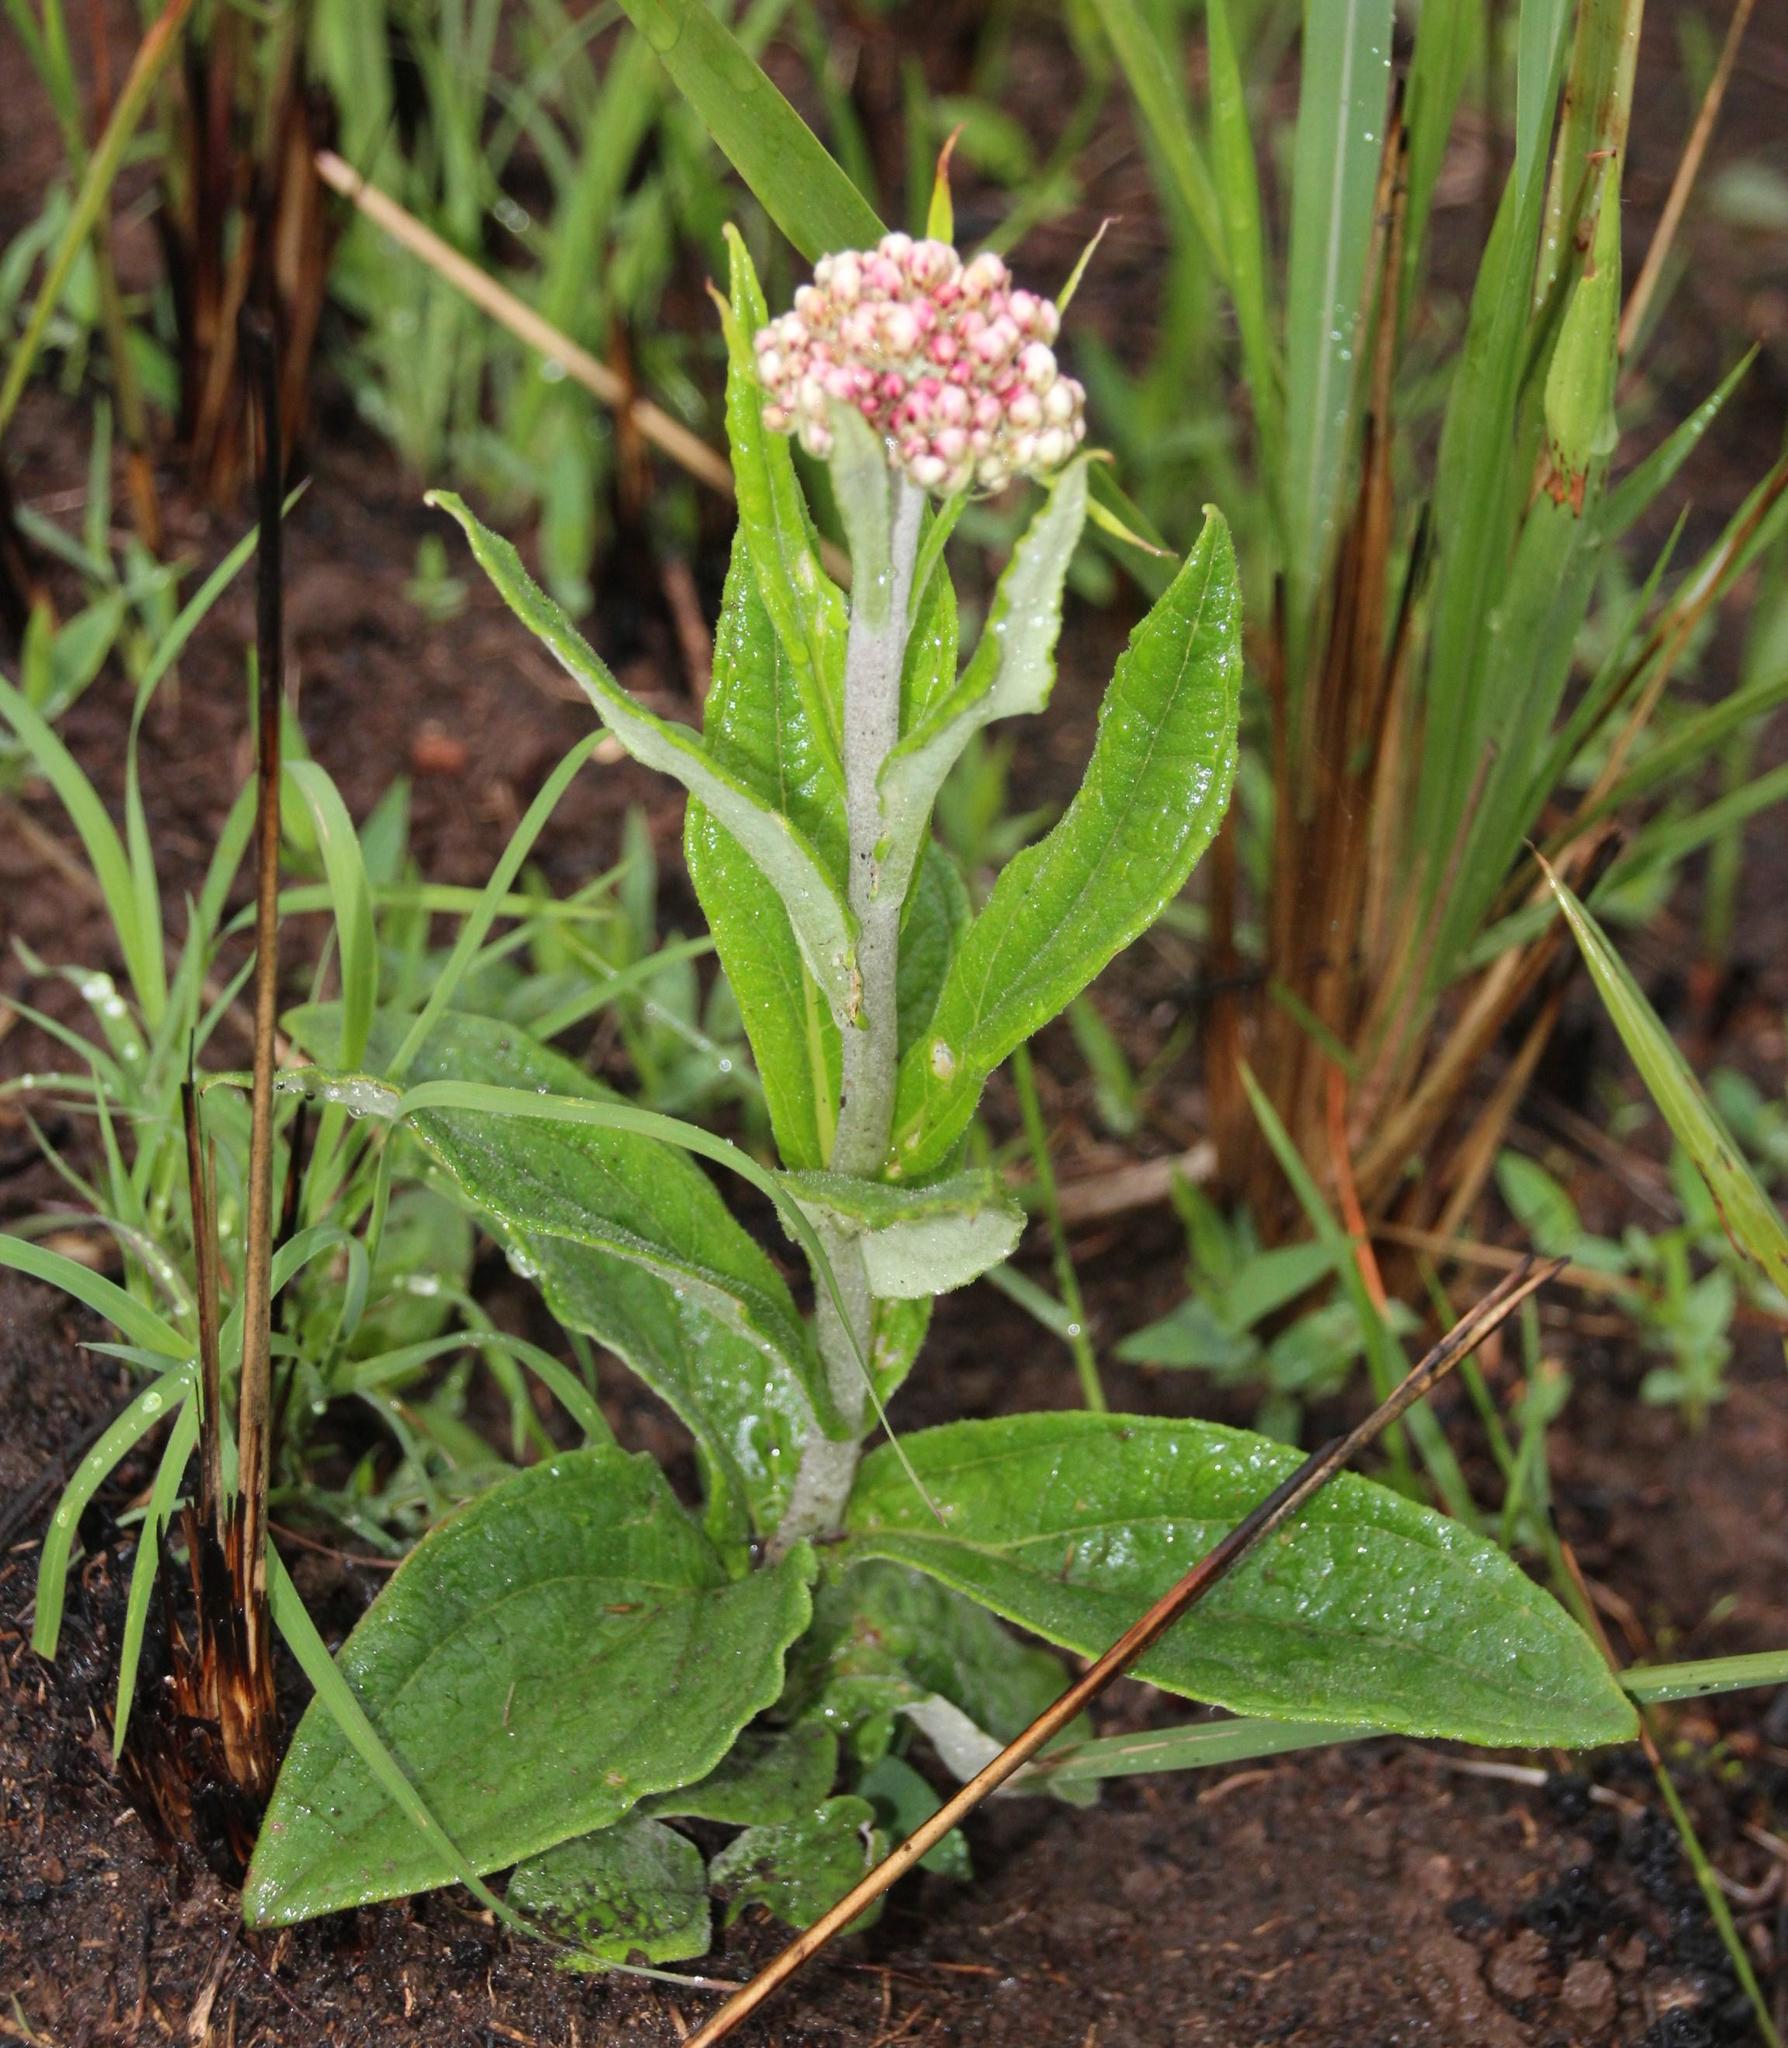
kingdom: Plantae
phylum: Tracheophyta
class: Magnoliopsida
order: Asterales
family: Asteraceae
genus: Helichrysum
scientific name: Helichrysum nudifolium
